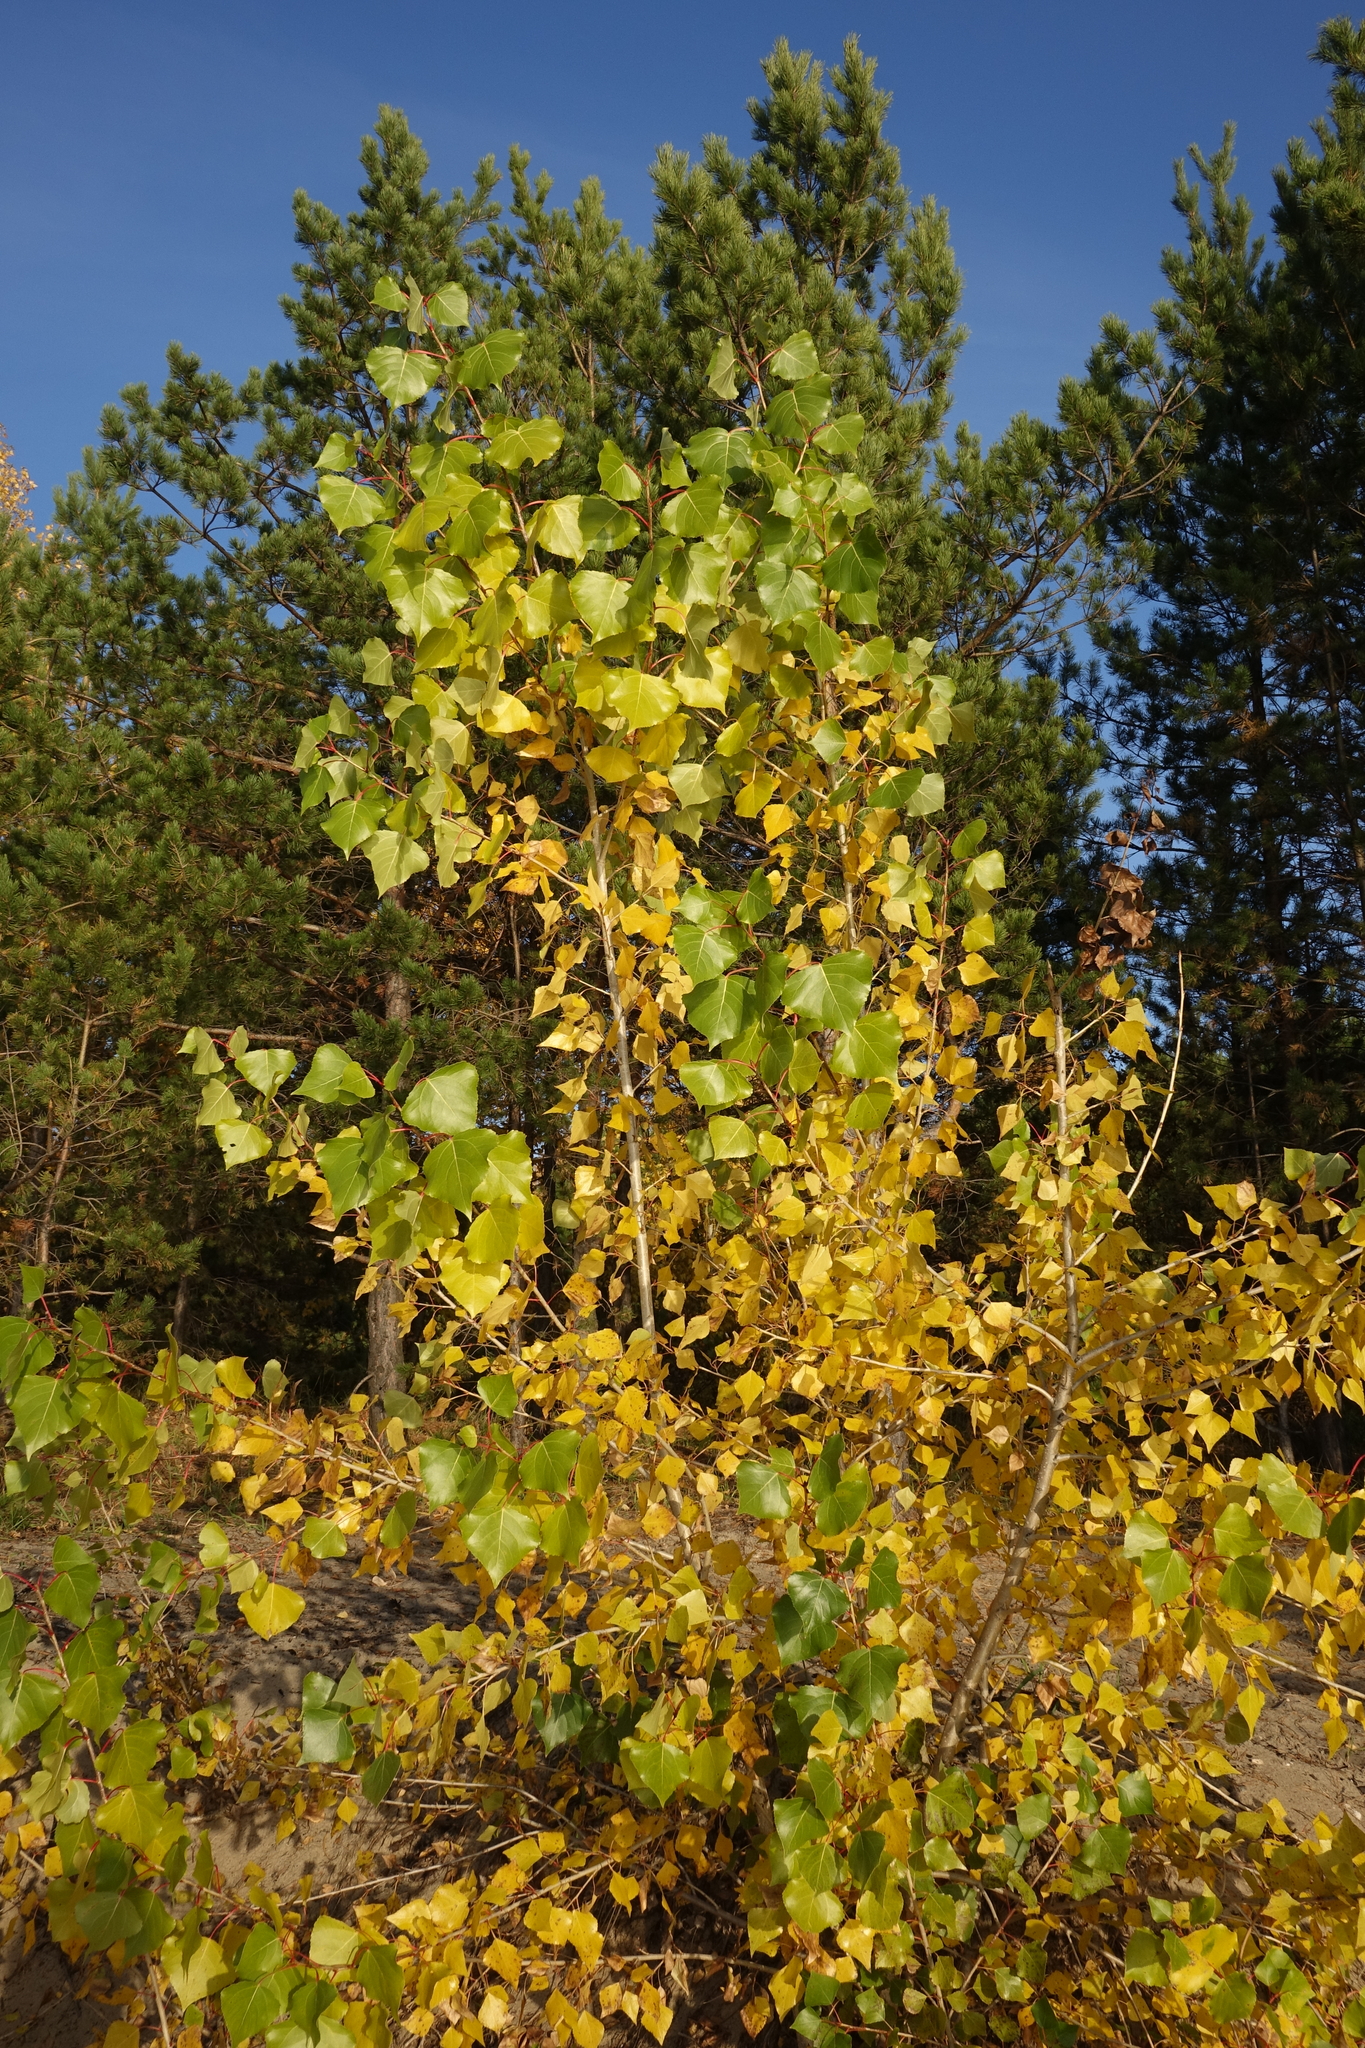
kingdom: Plantae
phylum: Tracheophyta
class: Magnoliopsida
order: Malpighiales
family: Salicaceae
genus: Populus
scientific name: Populus nigra
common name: Black poplar
